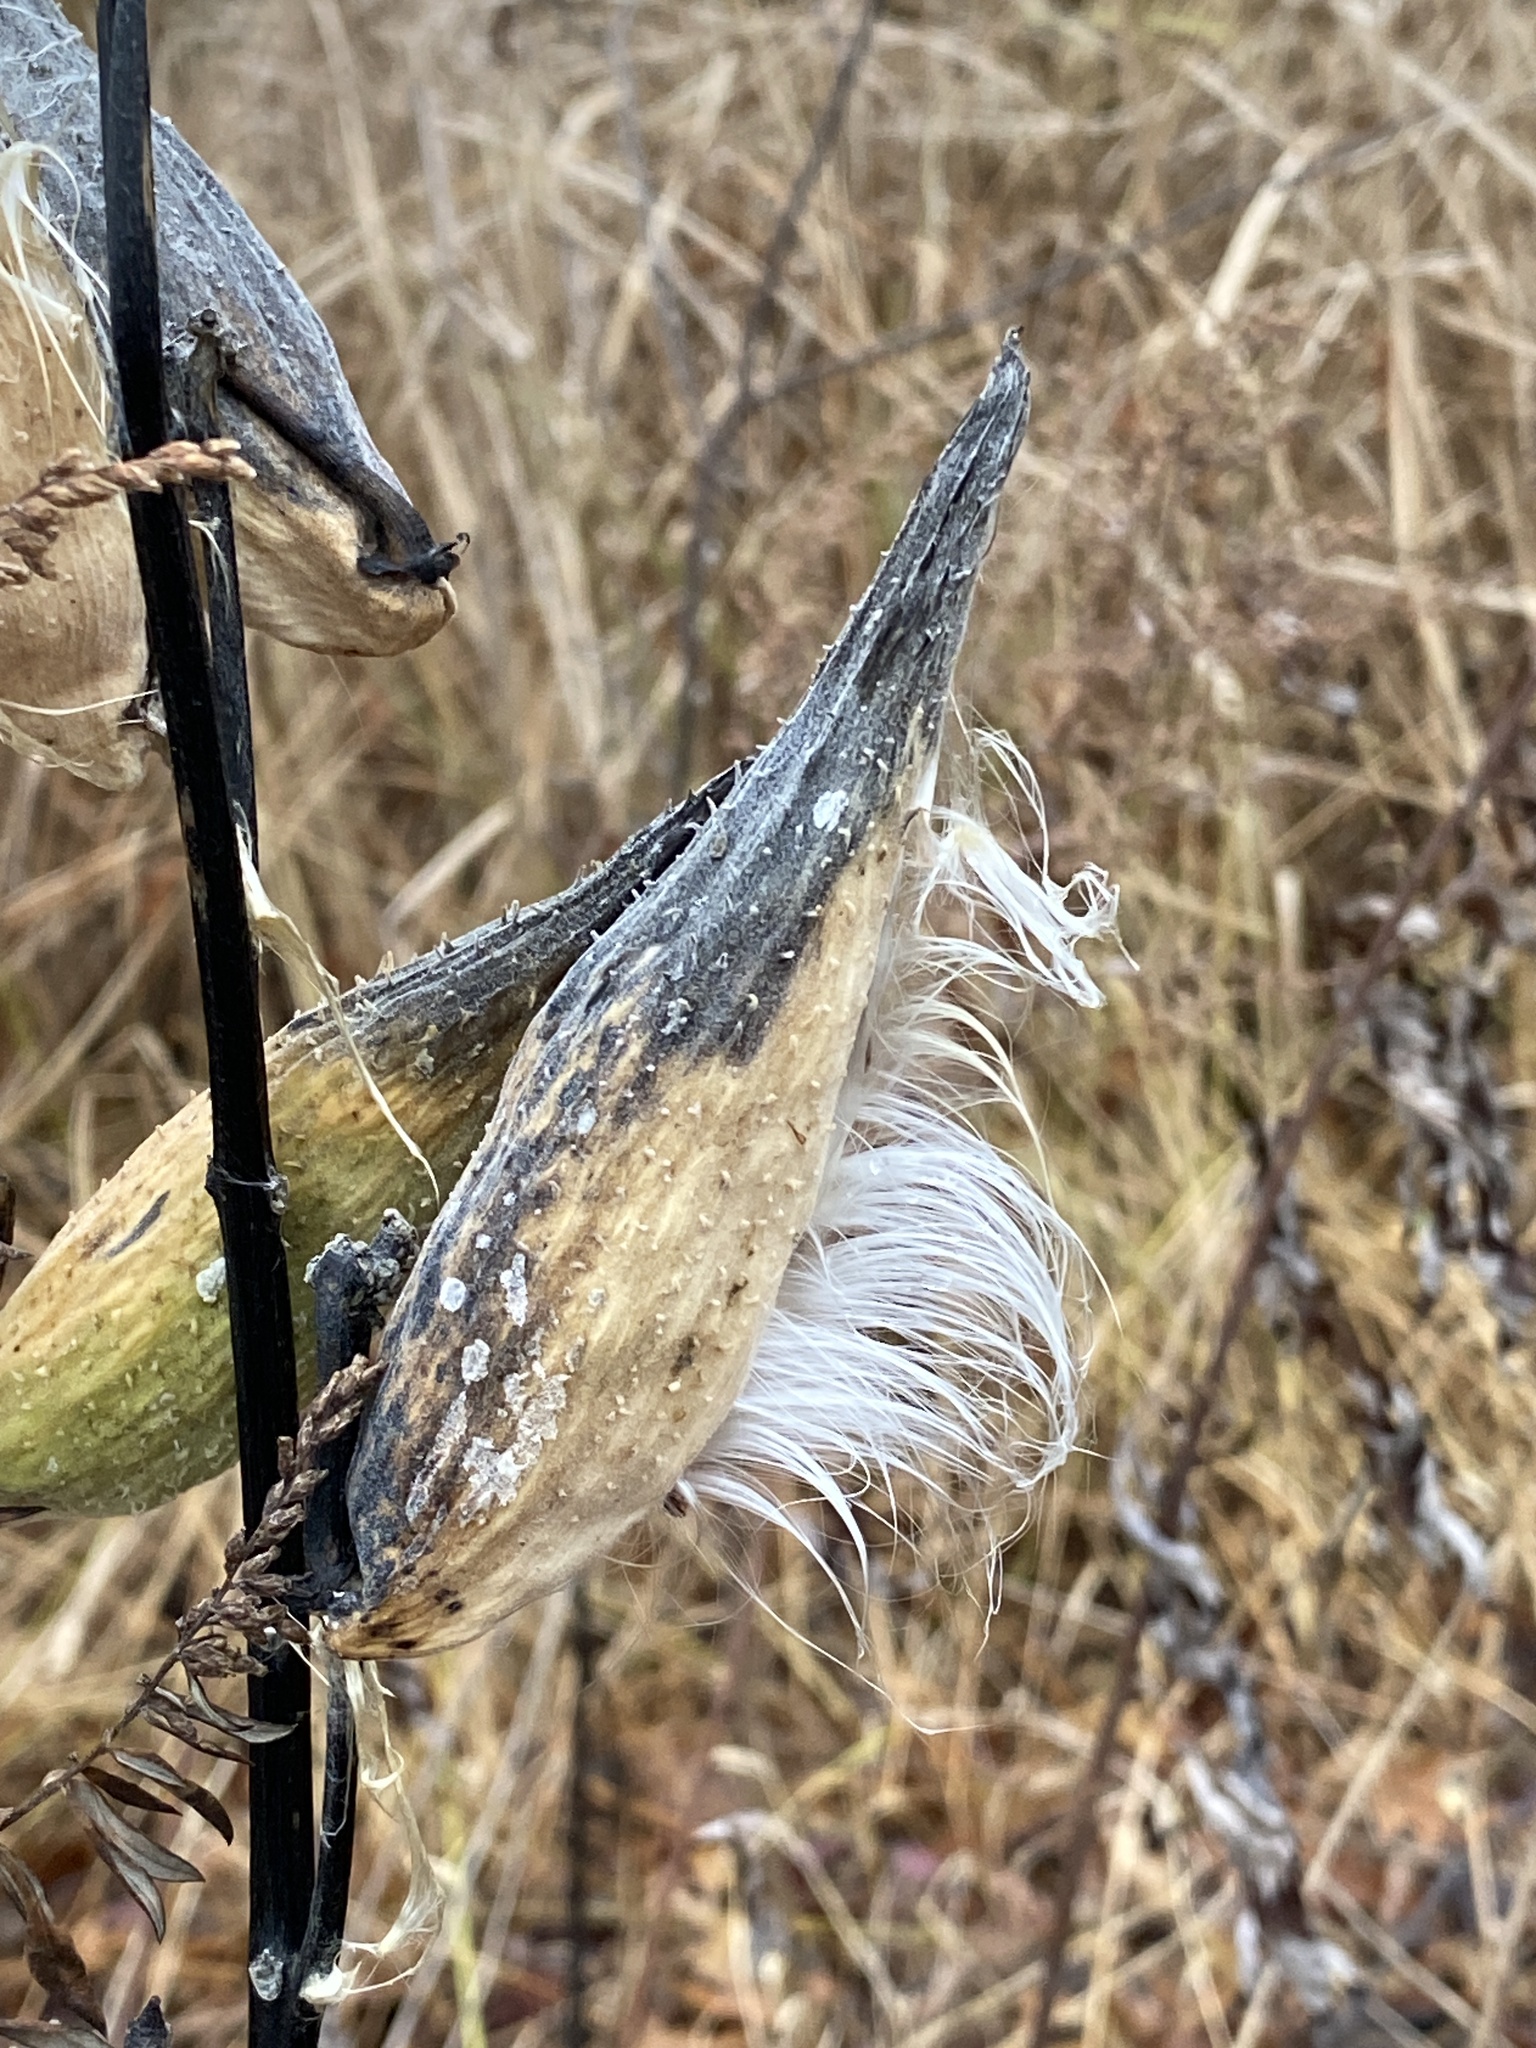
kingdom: Plantae
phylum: Tracheophyta
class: Magnoliopsida
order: Gentianales
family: Apocynaceae
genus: Asclepias
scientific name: Asclepias syriaca
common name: Common milkweed
